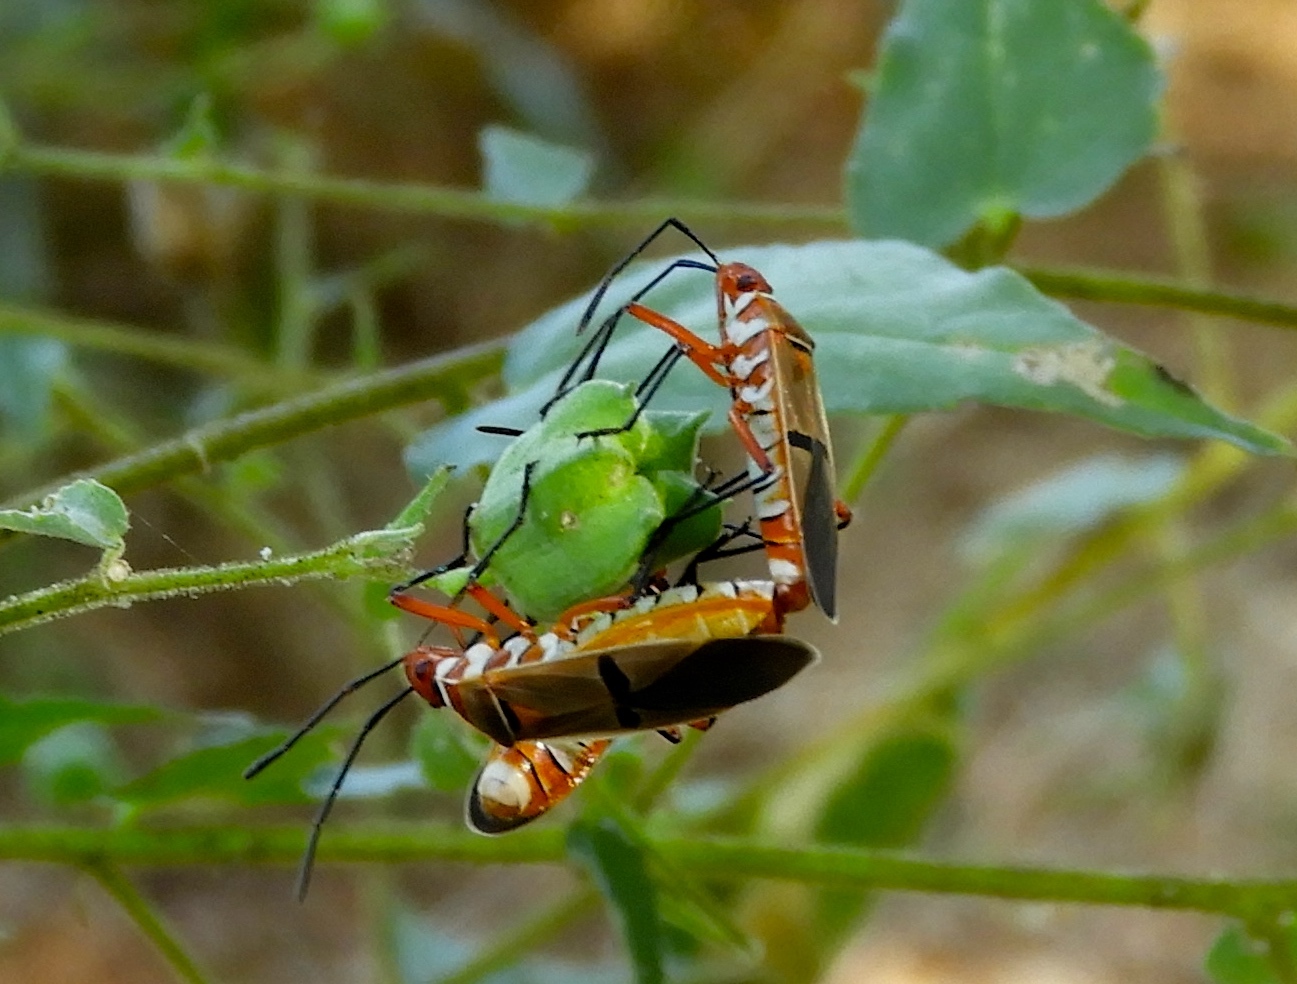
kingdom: Animalia
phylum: Arthropoda
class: Insecta
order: Hemiptera
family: Pyrrhocoridae
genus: Dysdercus
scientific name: Dysdercus
